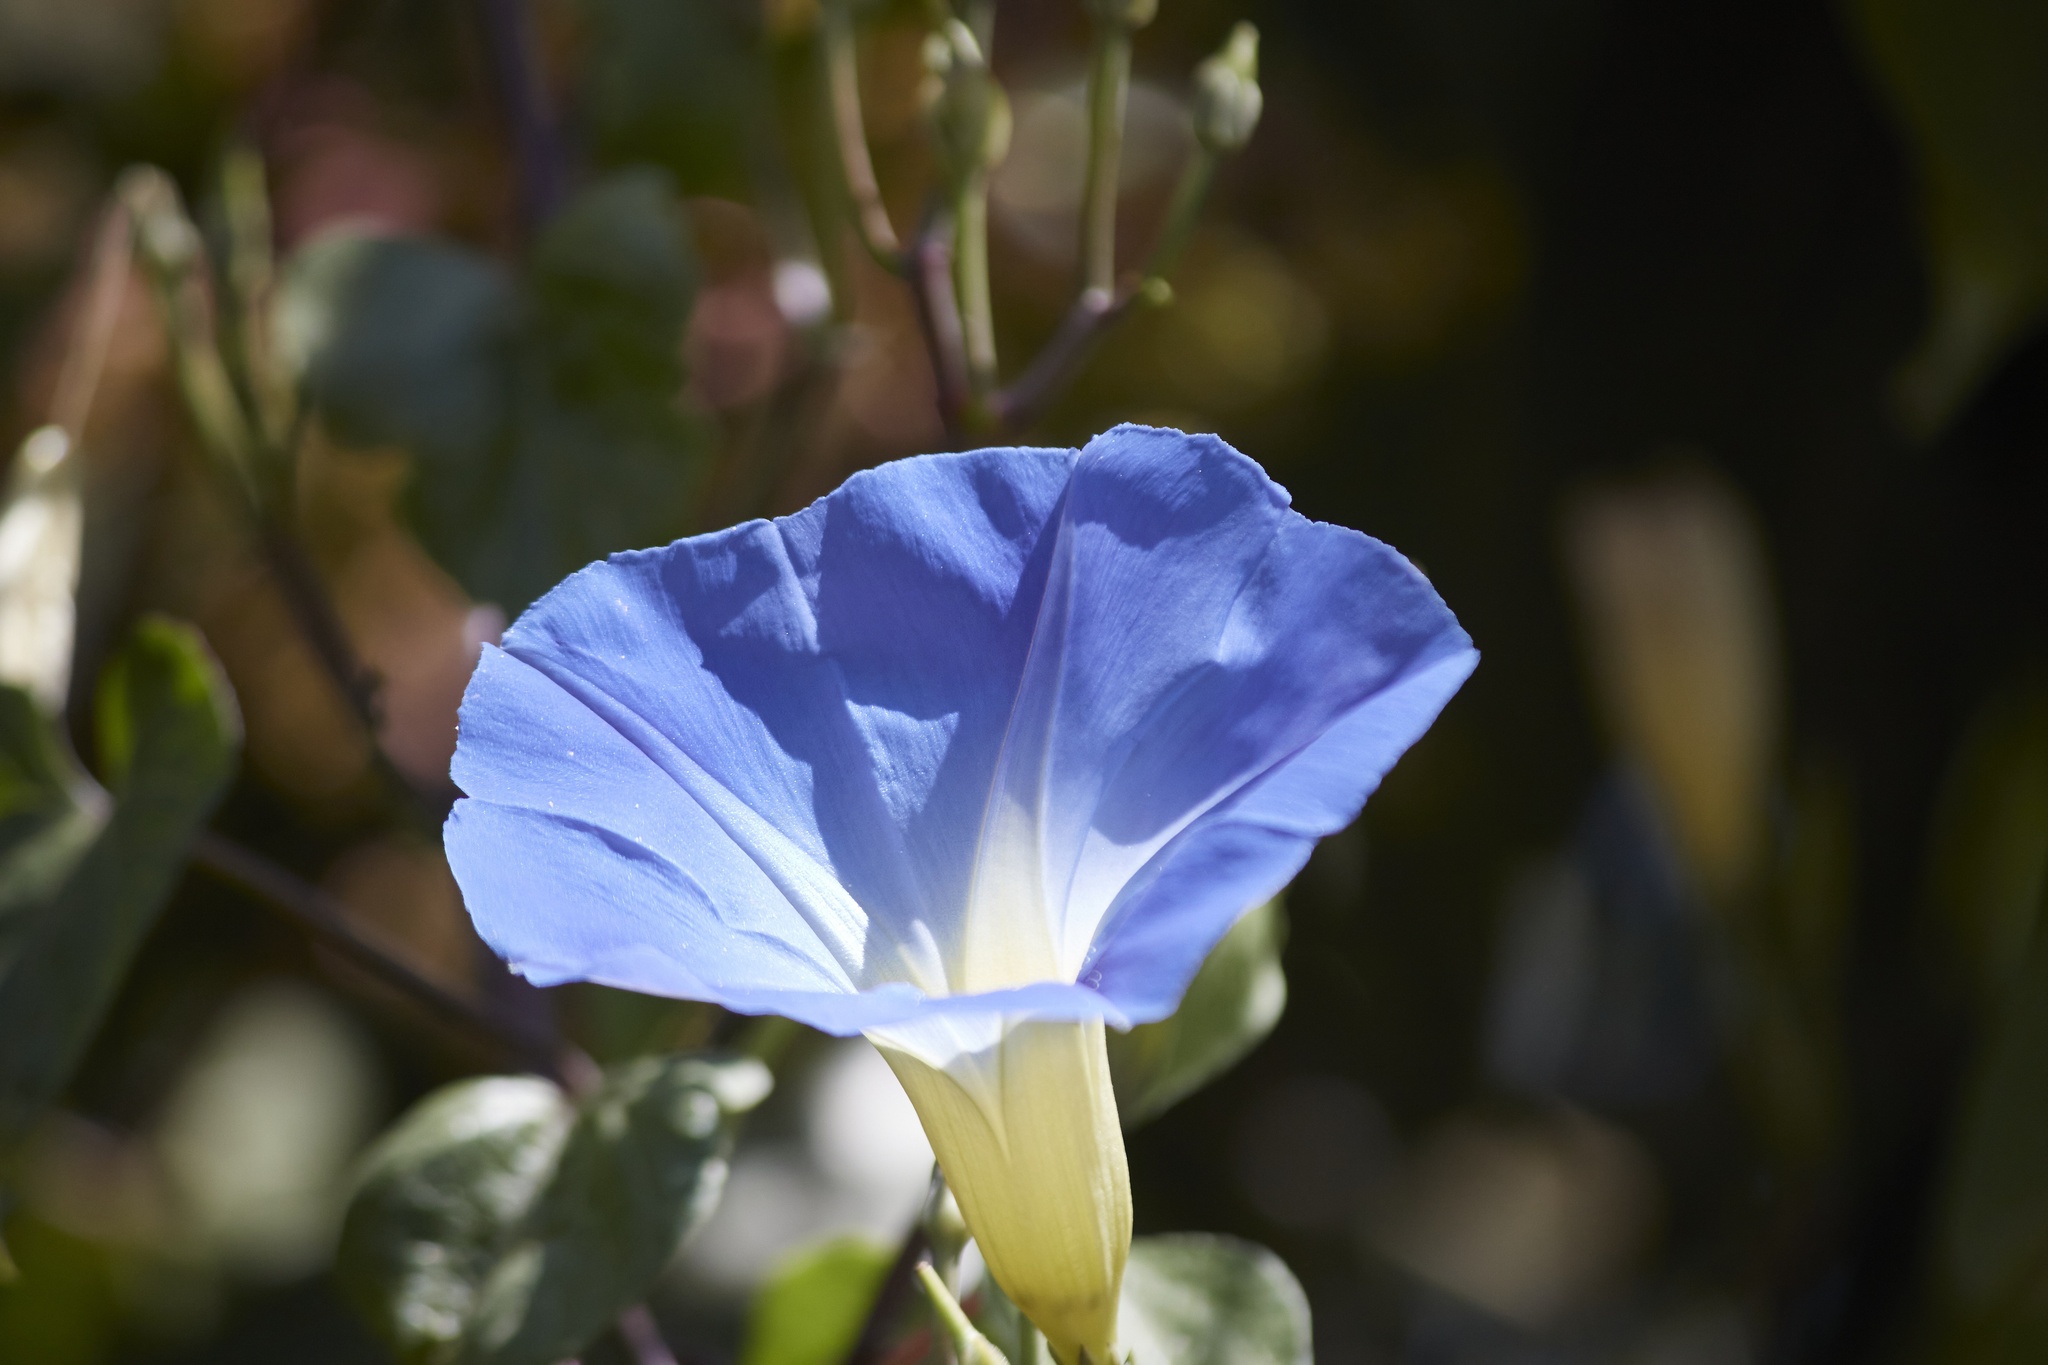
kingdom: Plantae
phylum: Tracheophyta
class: Magnoliopsida
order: Solanales
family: Convolvulaceae
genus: Ipomoea
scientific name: Ipomoea tricolor
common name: Morning-glory
